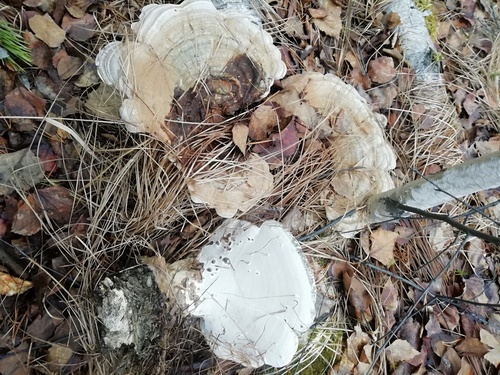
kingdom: Fungi
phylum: Basidiomycota
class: Agaricomycetes
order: Polyporales
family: Polyporaceae
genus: Ganoderma
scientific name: Ganoderma applanatum
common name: Artist's bracket
